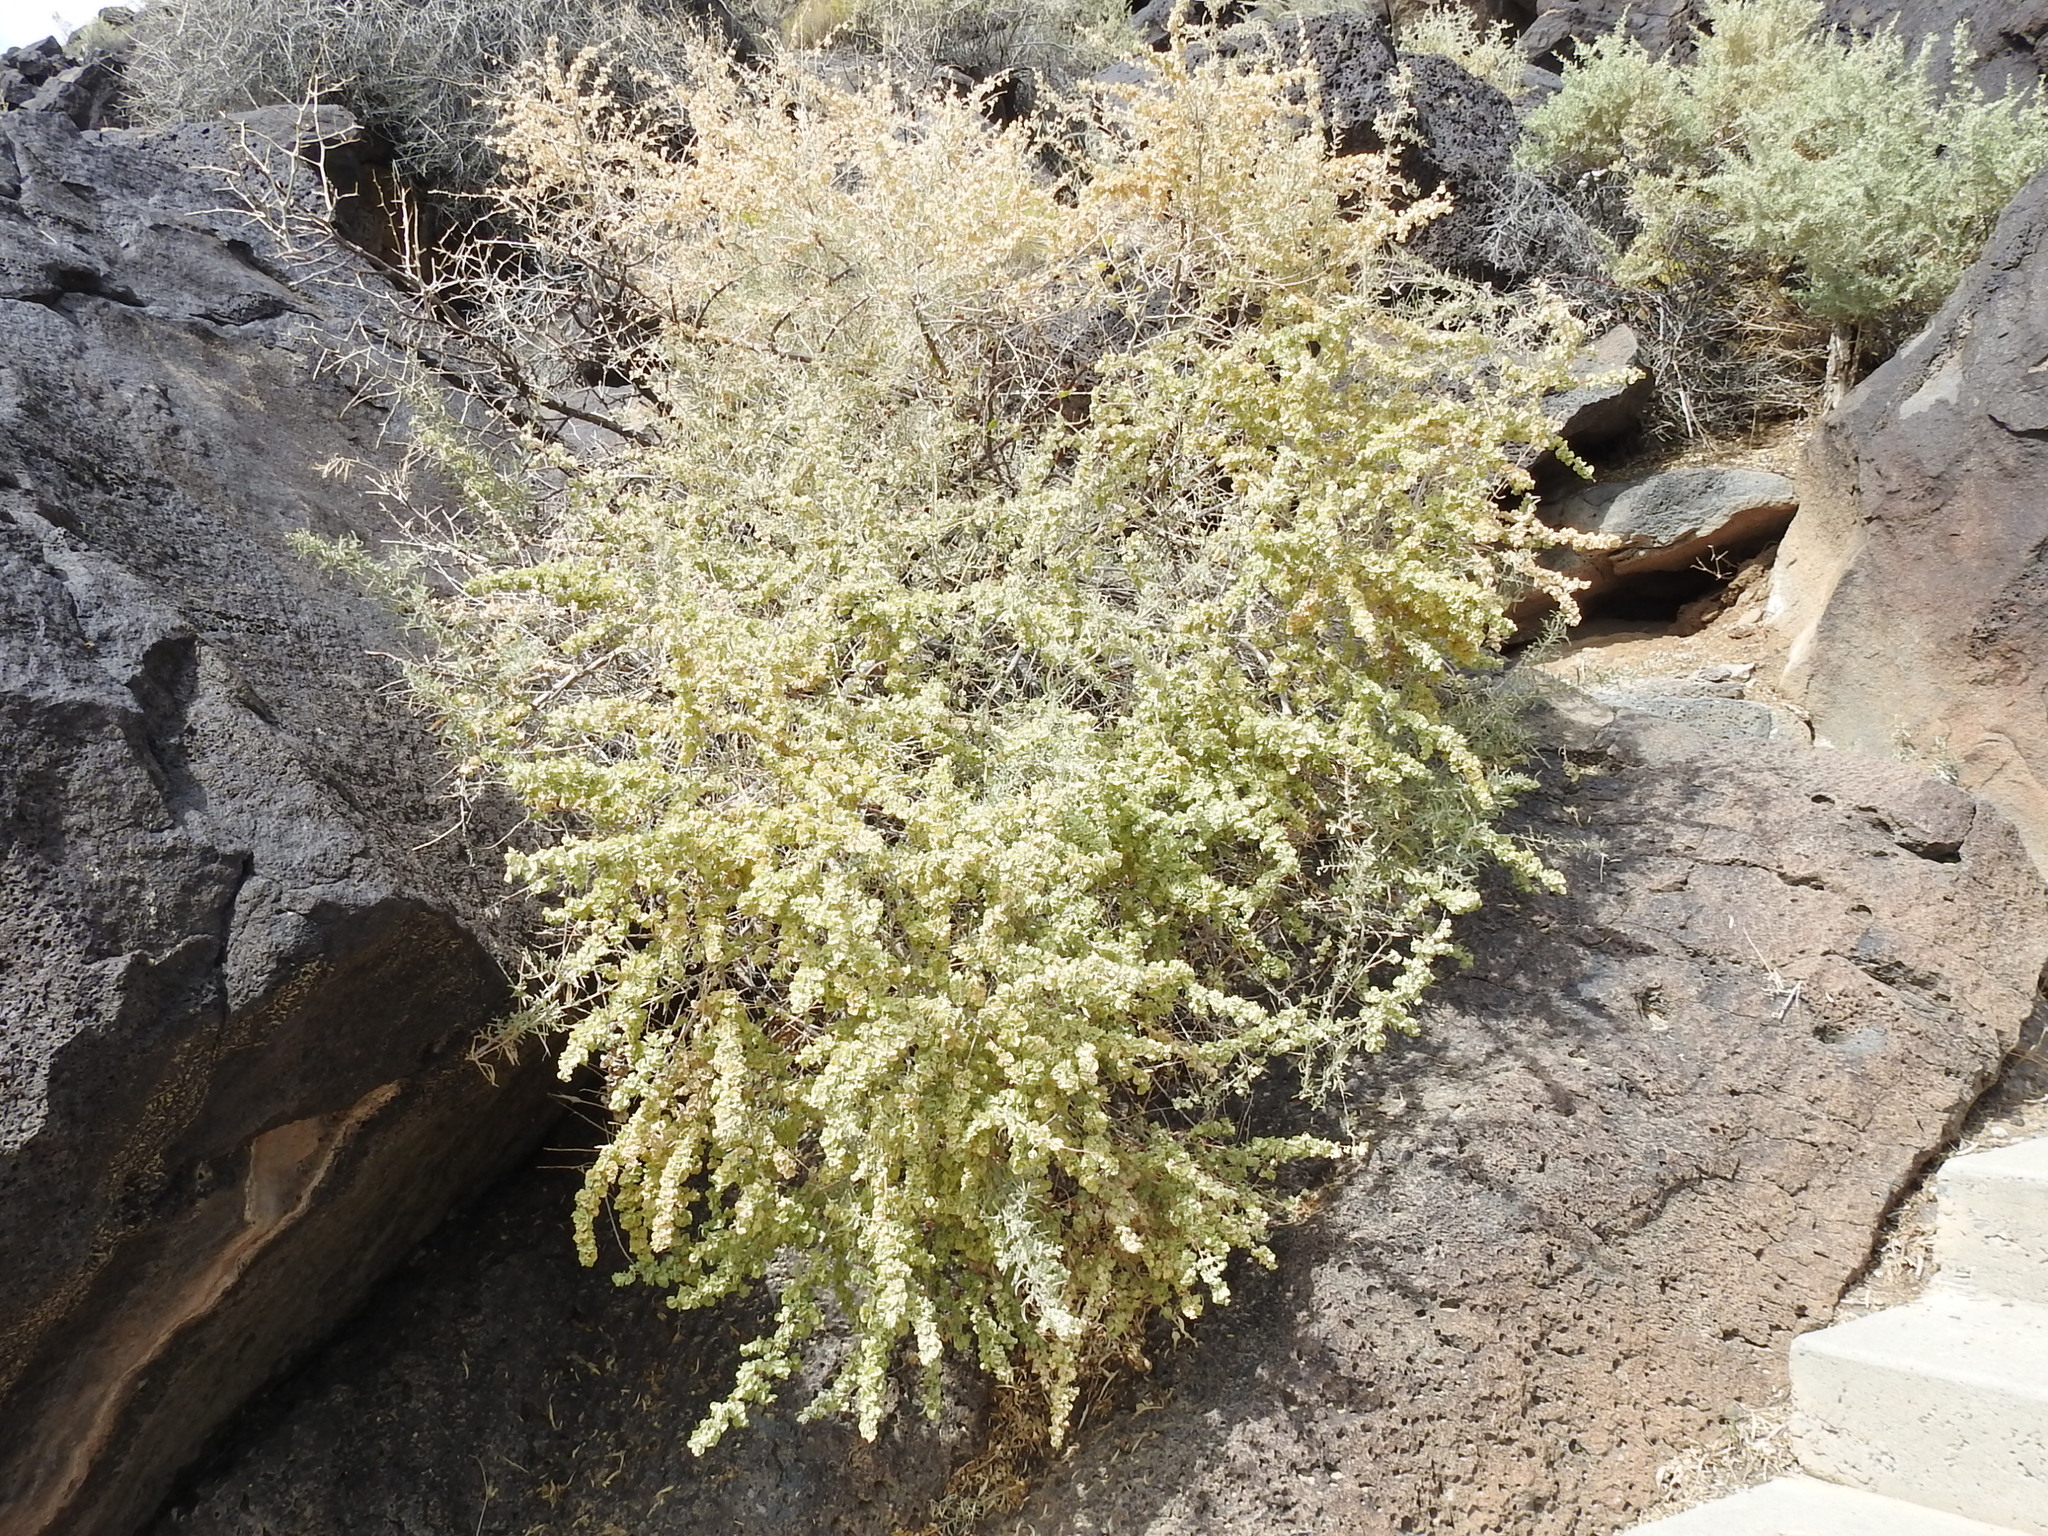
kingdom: Plantae
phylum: Tracheophyta
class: Magnoliopsida
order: Caryophyllales
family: Amaranthaceae
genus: Atriplex
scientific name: Atriplex canescens
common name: Four-wing saltbush
